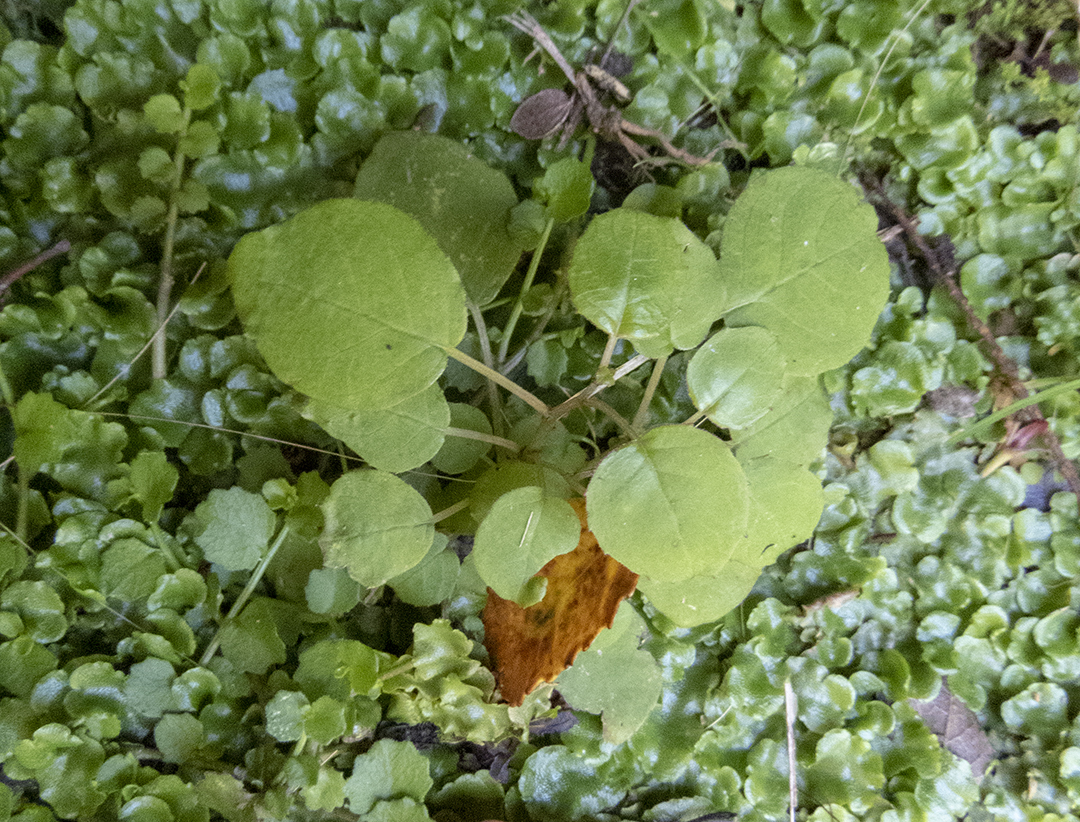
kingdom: Plantae
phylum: Tracheophyta
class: Magnoliopsida
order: Myrtales
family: Onagraceae
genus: Fuchsia
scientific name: Fuchsia perscandens
